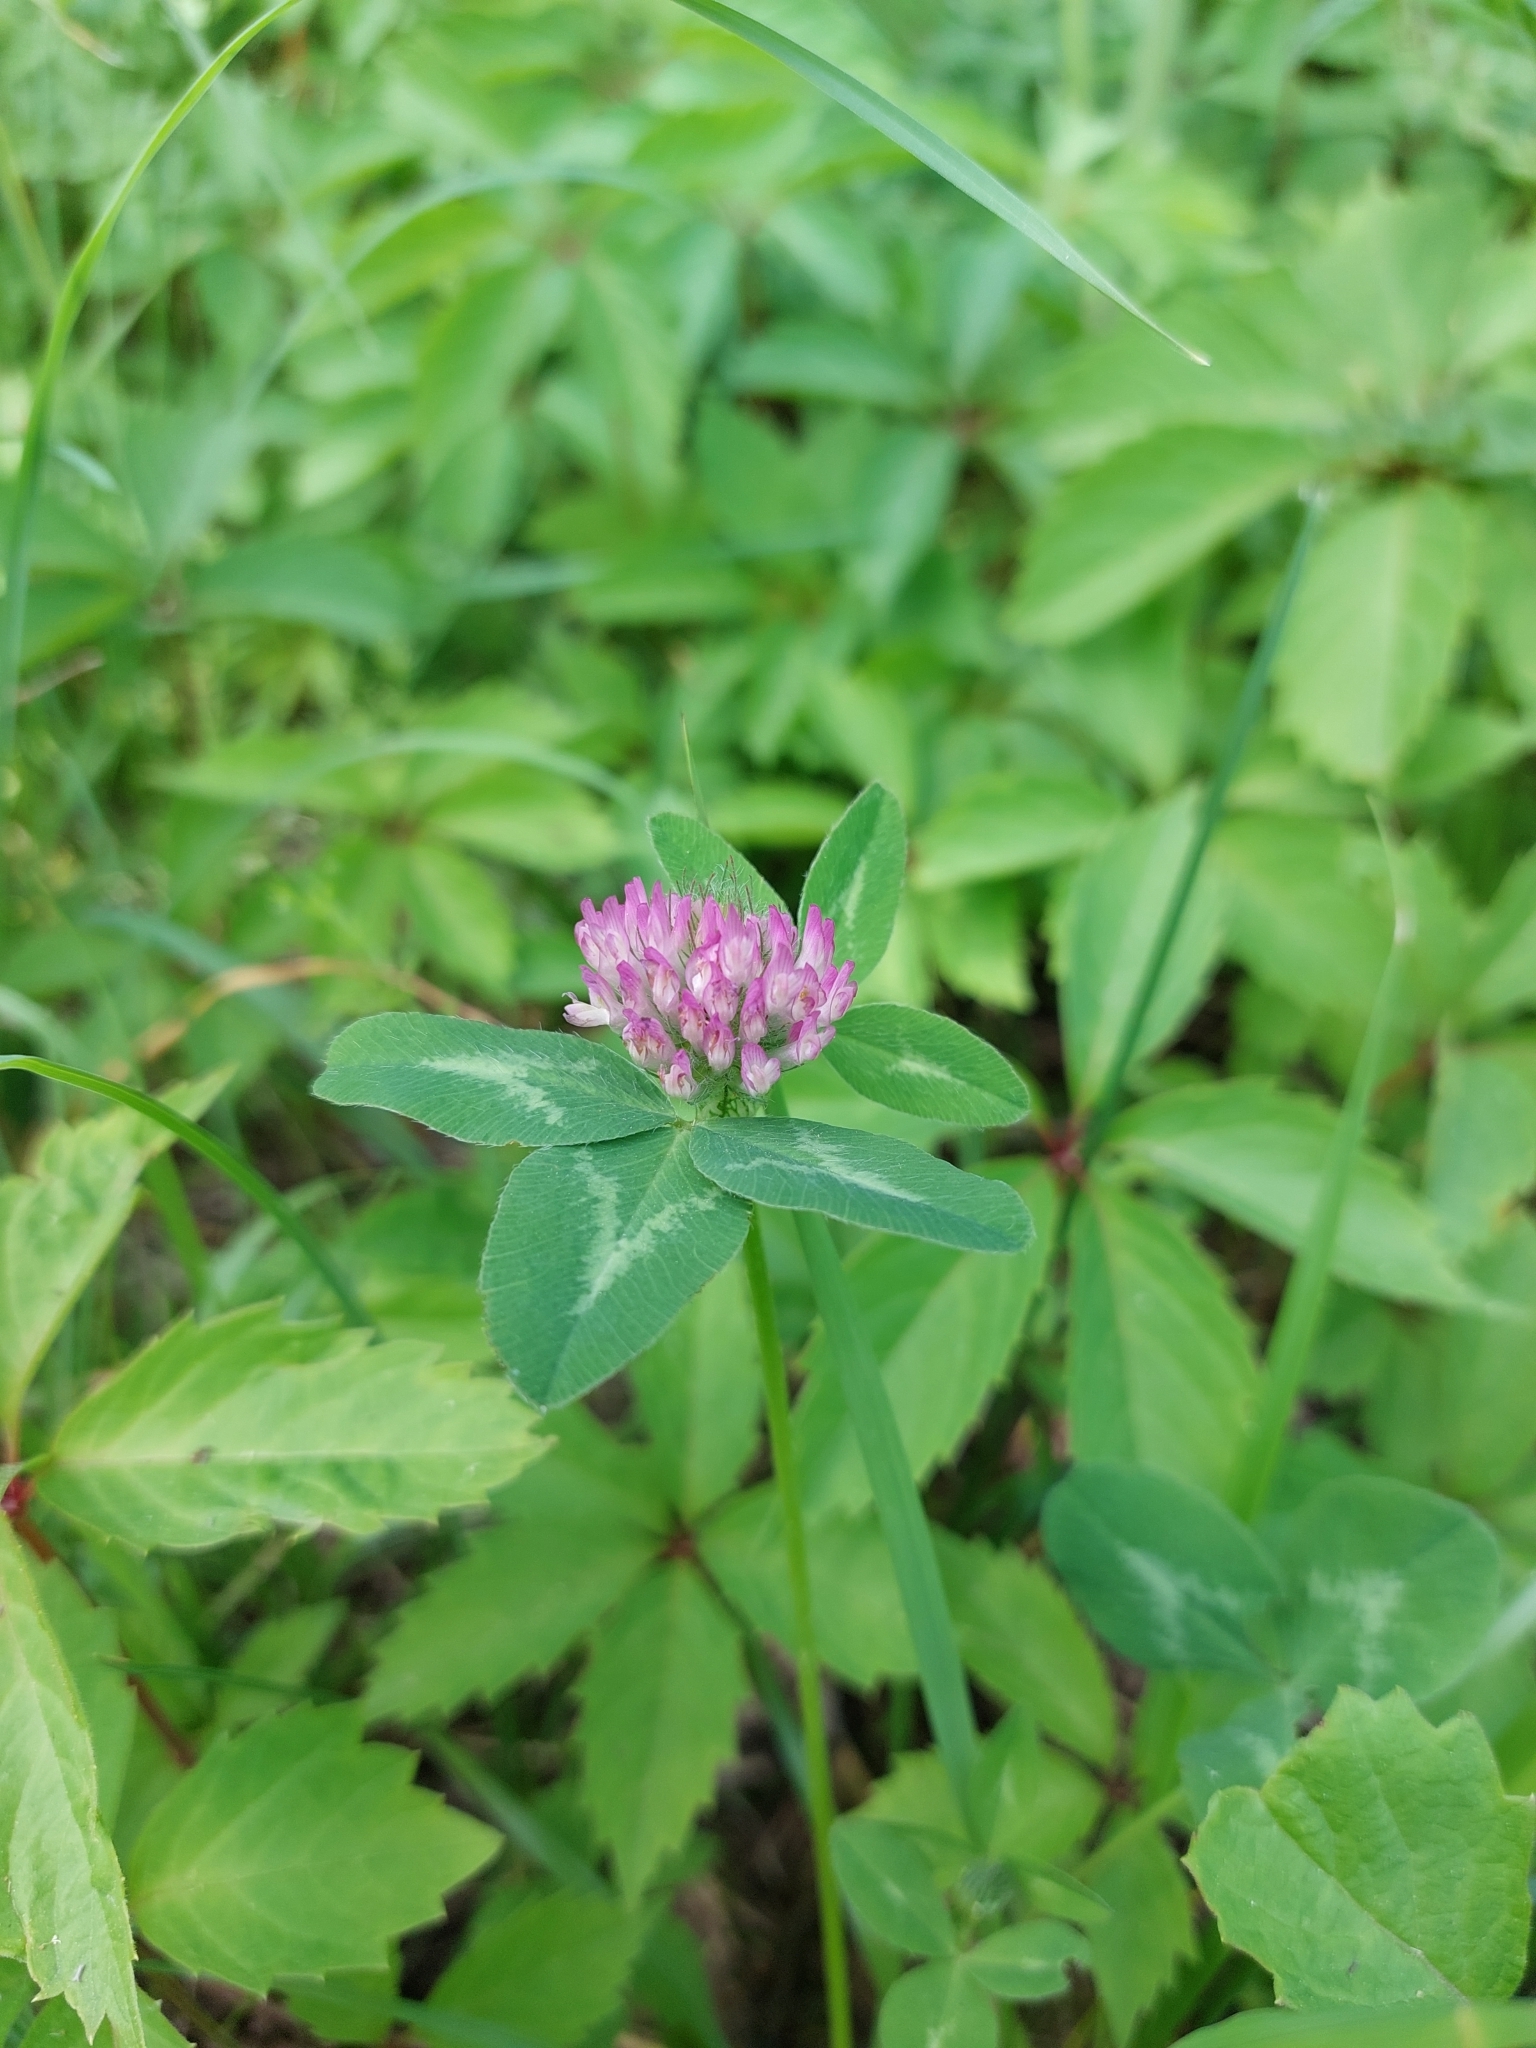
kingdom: Plantae
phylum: Tracheophyta
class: Magnoliopsida
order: Fabales
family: Fabaceae
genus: Trifolium
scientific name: Trifolium pratense
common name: Red clover
